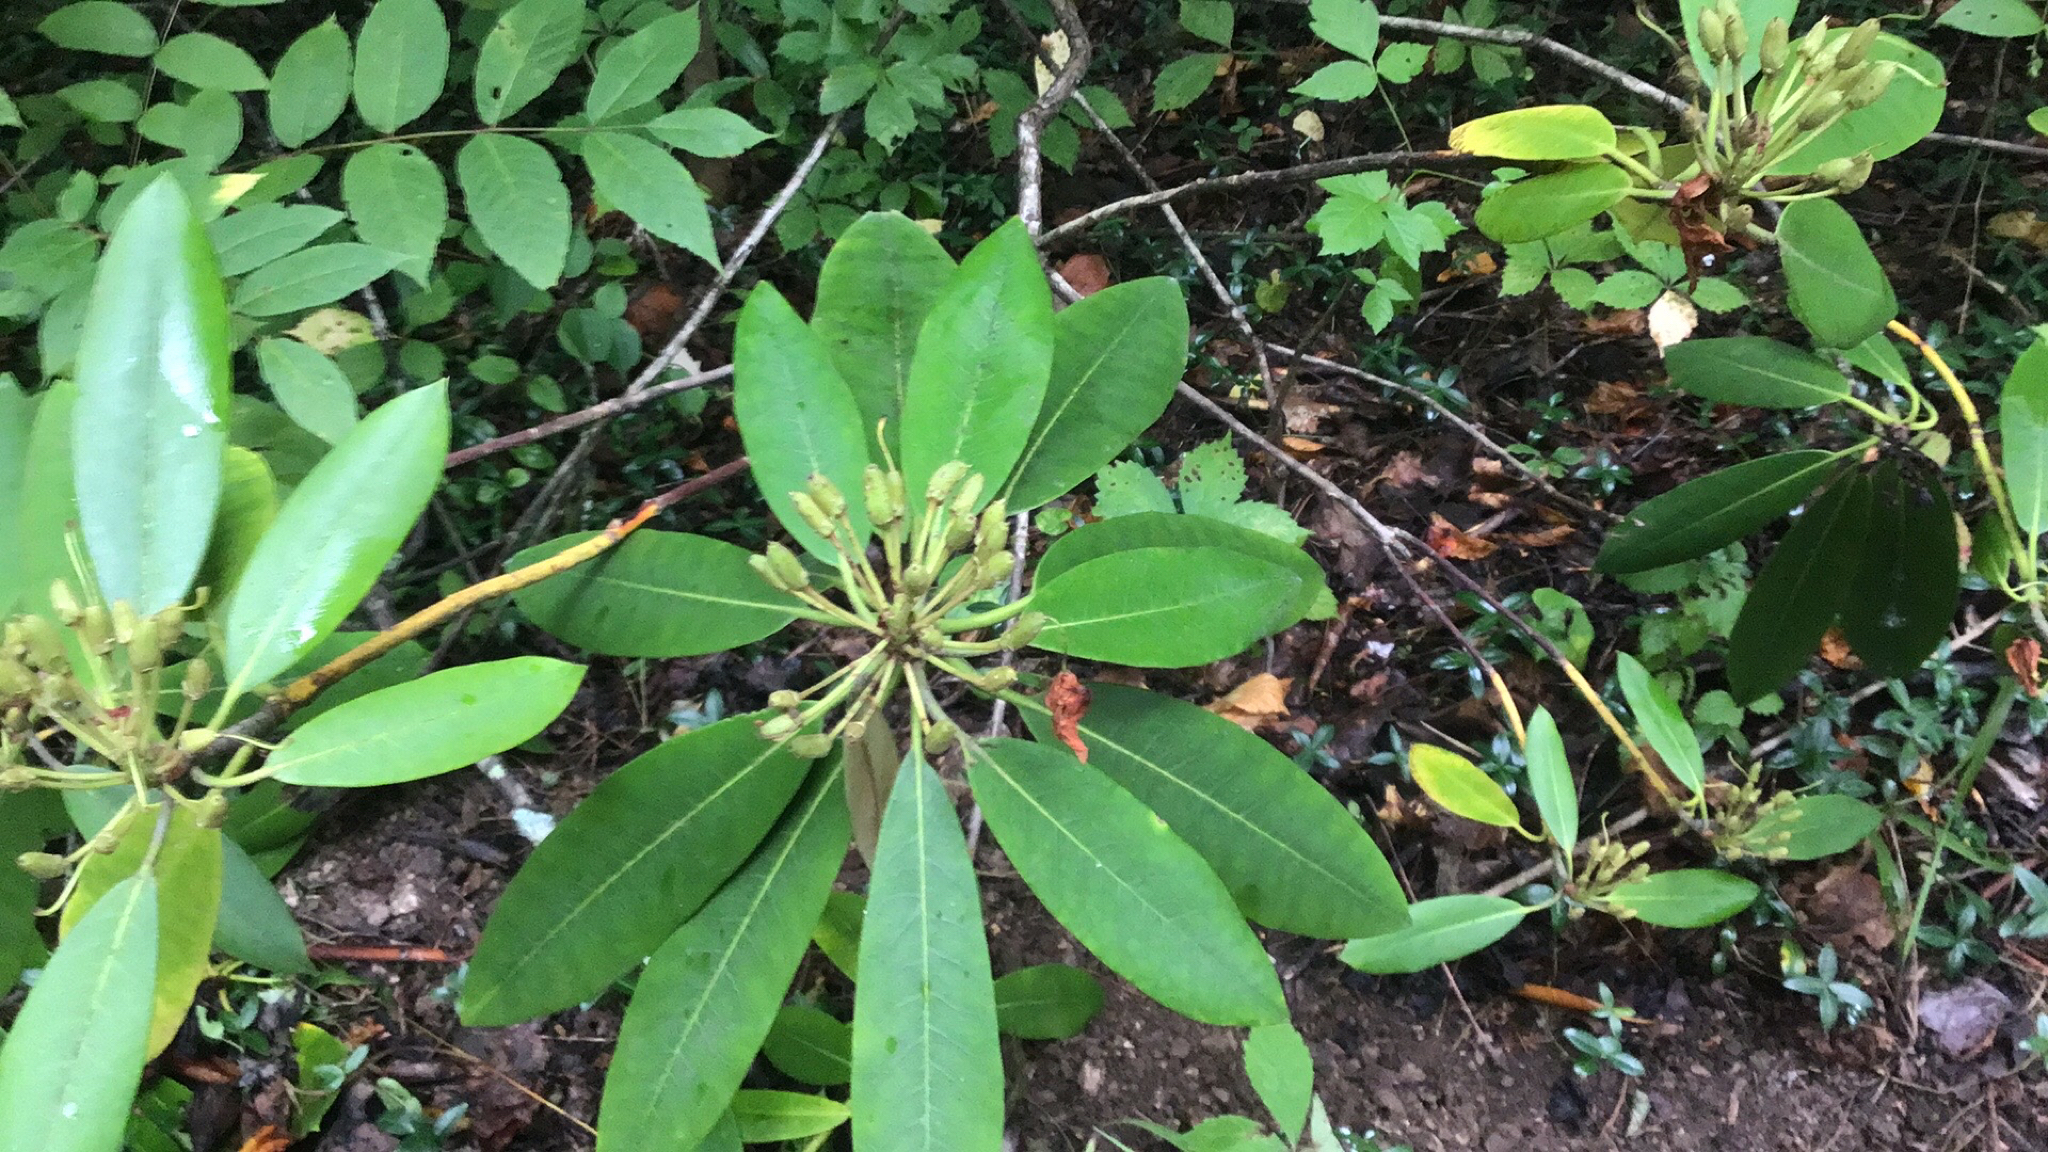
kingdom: Plantae
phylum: Tracheophyta
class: Magnoliopsida
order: Ericales
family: Ericaceae
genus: Rhododendron
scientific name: Rhododendron maximum
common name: Great rhododendron
